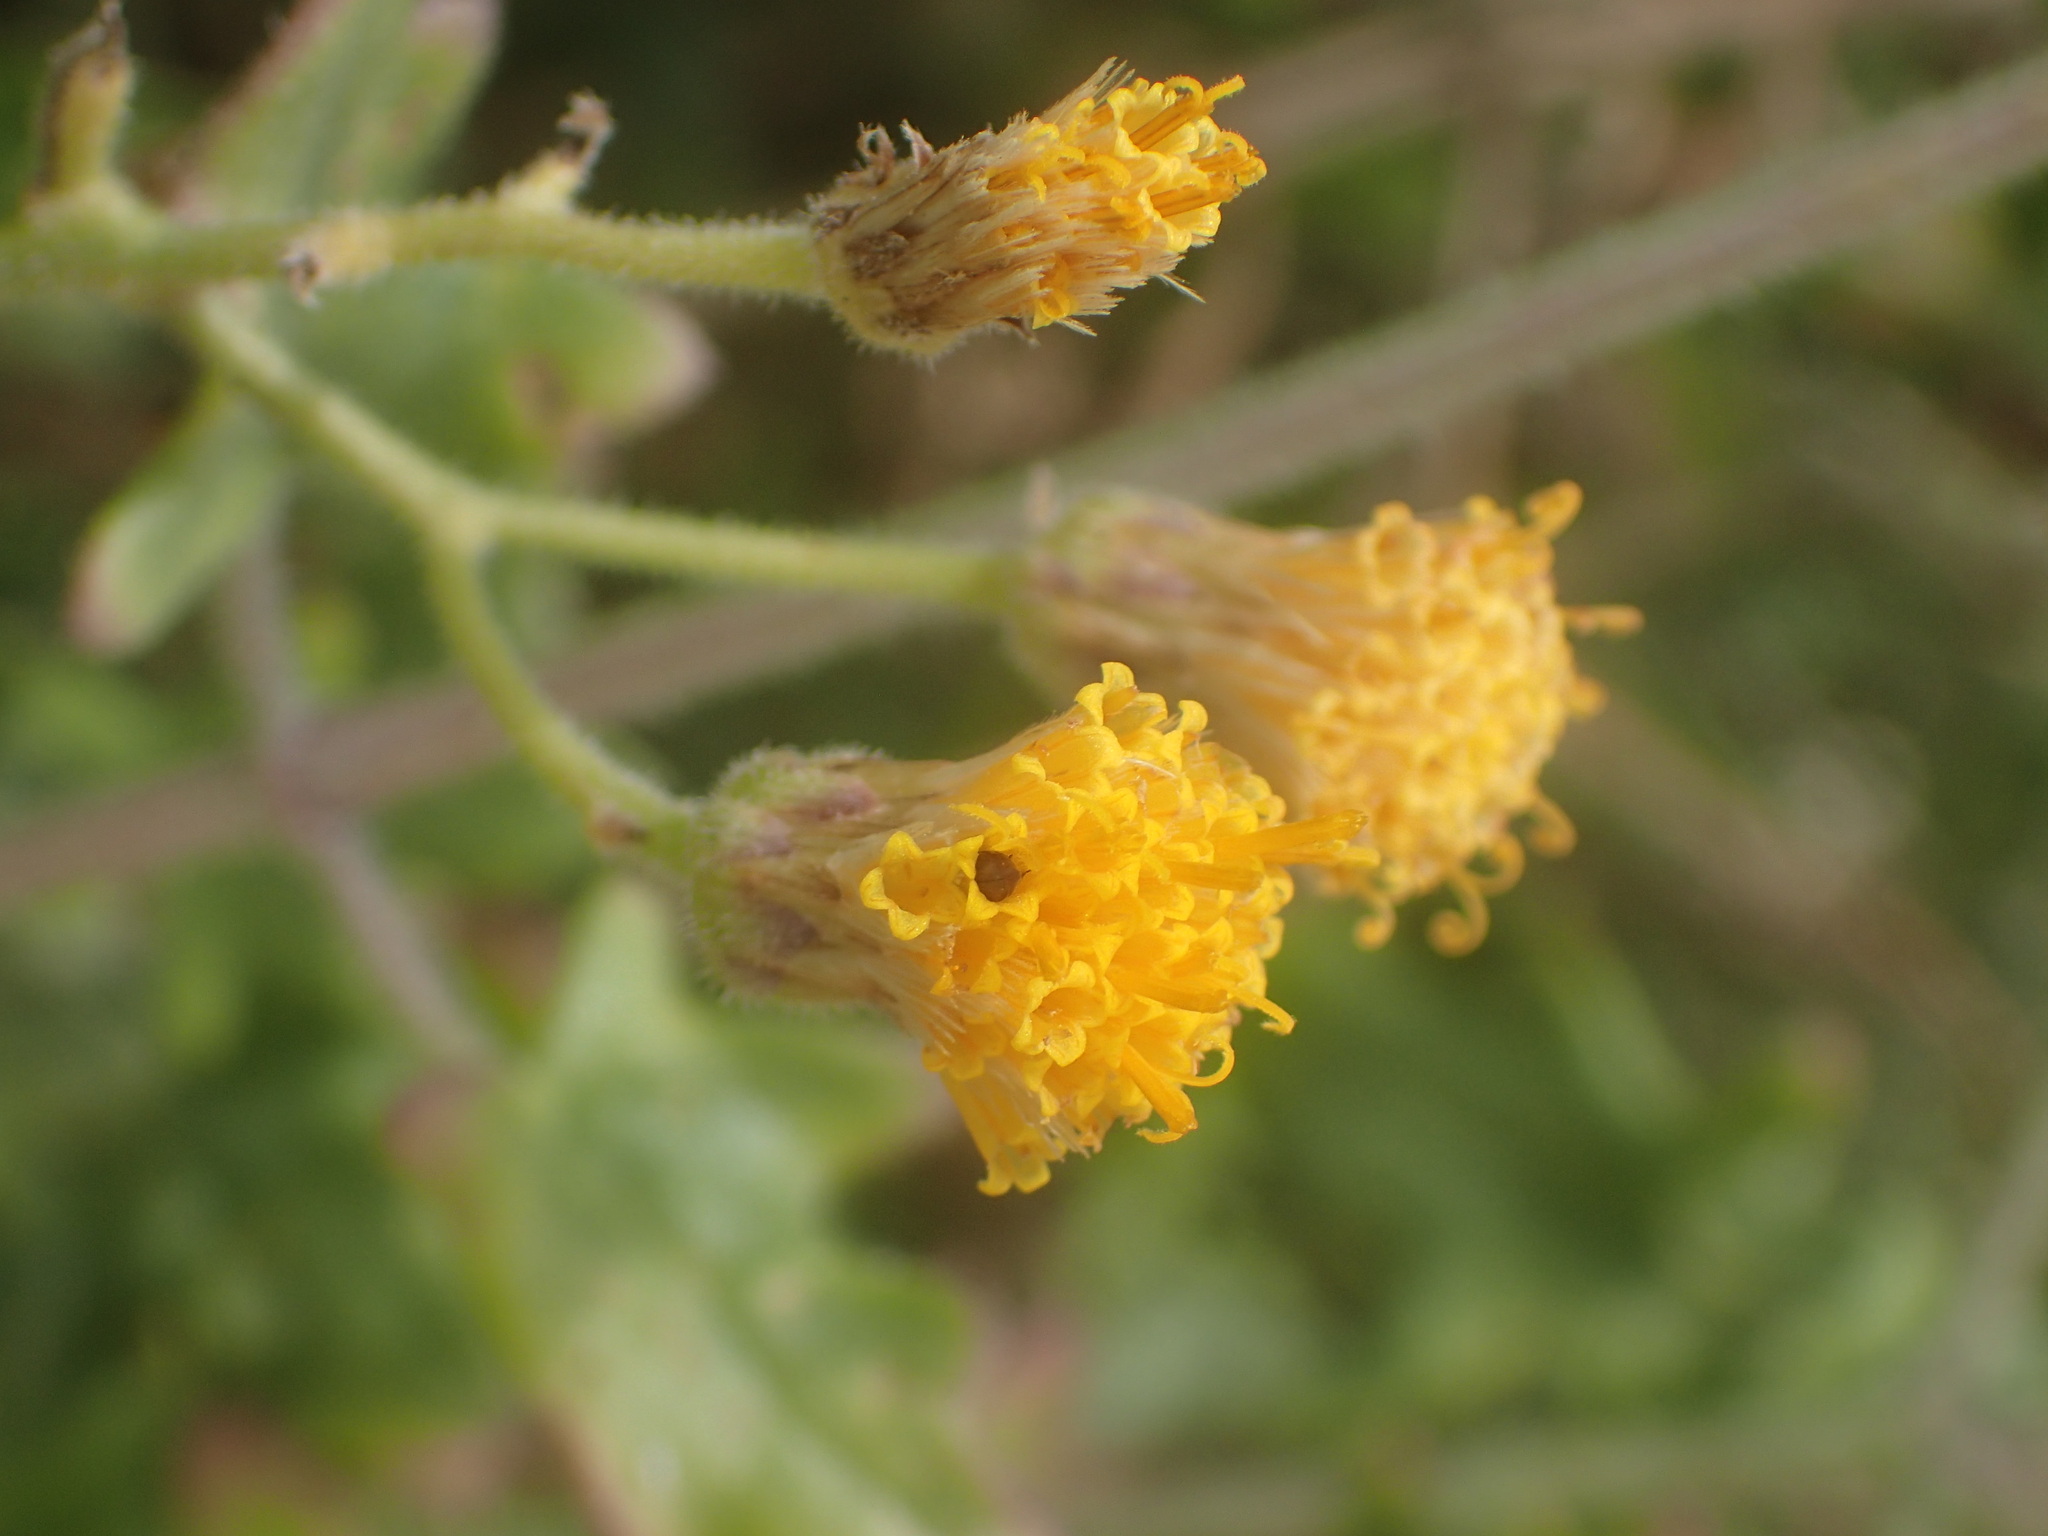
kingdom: Plantae
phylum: Tracheophyta
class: Magnoliopsida
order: Asterales
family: Asteraceae
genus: Bebbia
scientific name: Bebbia atriplicifolia
